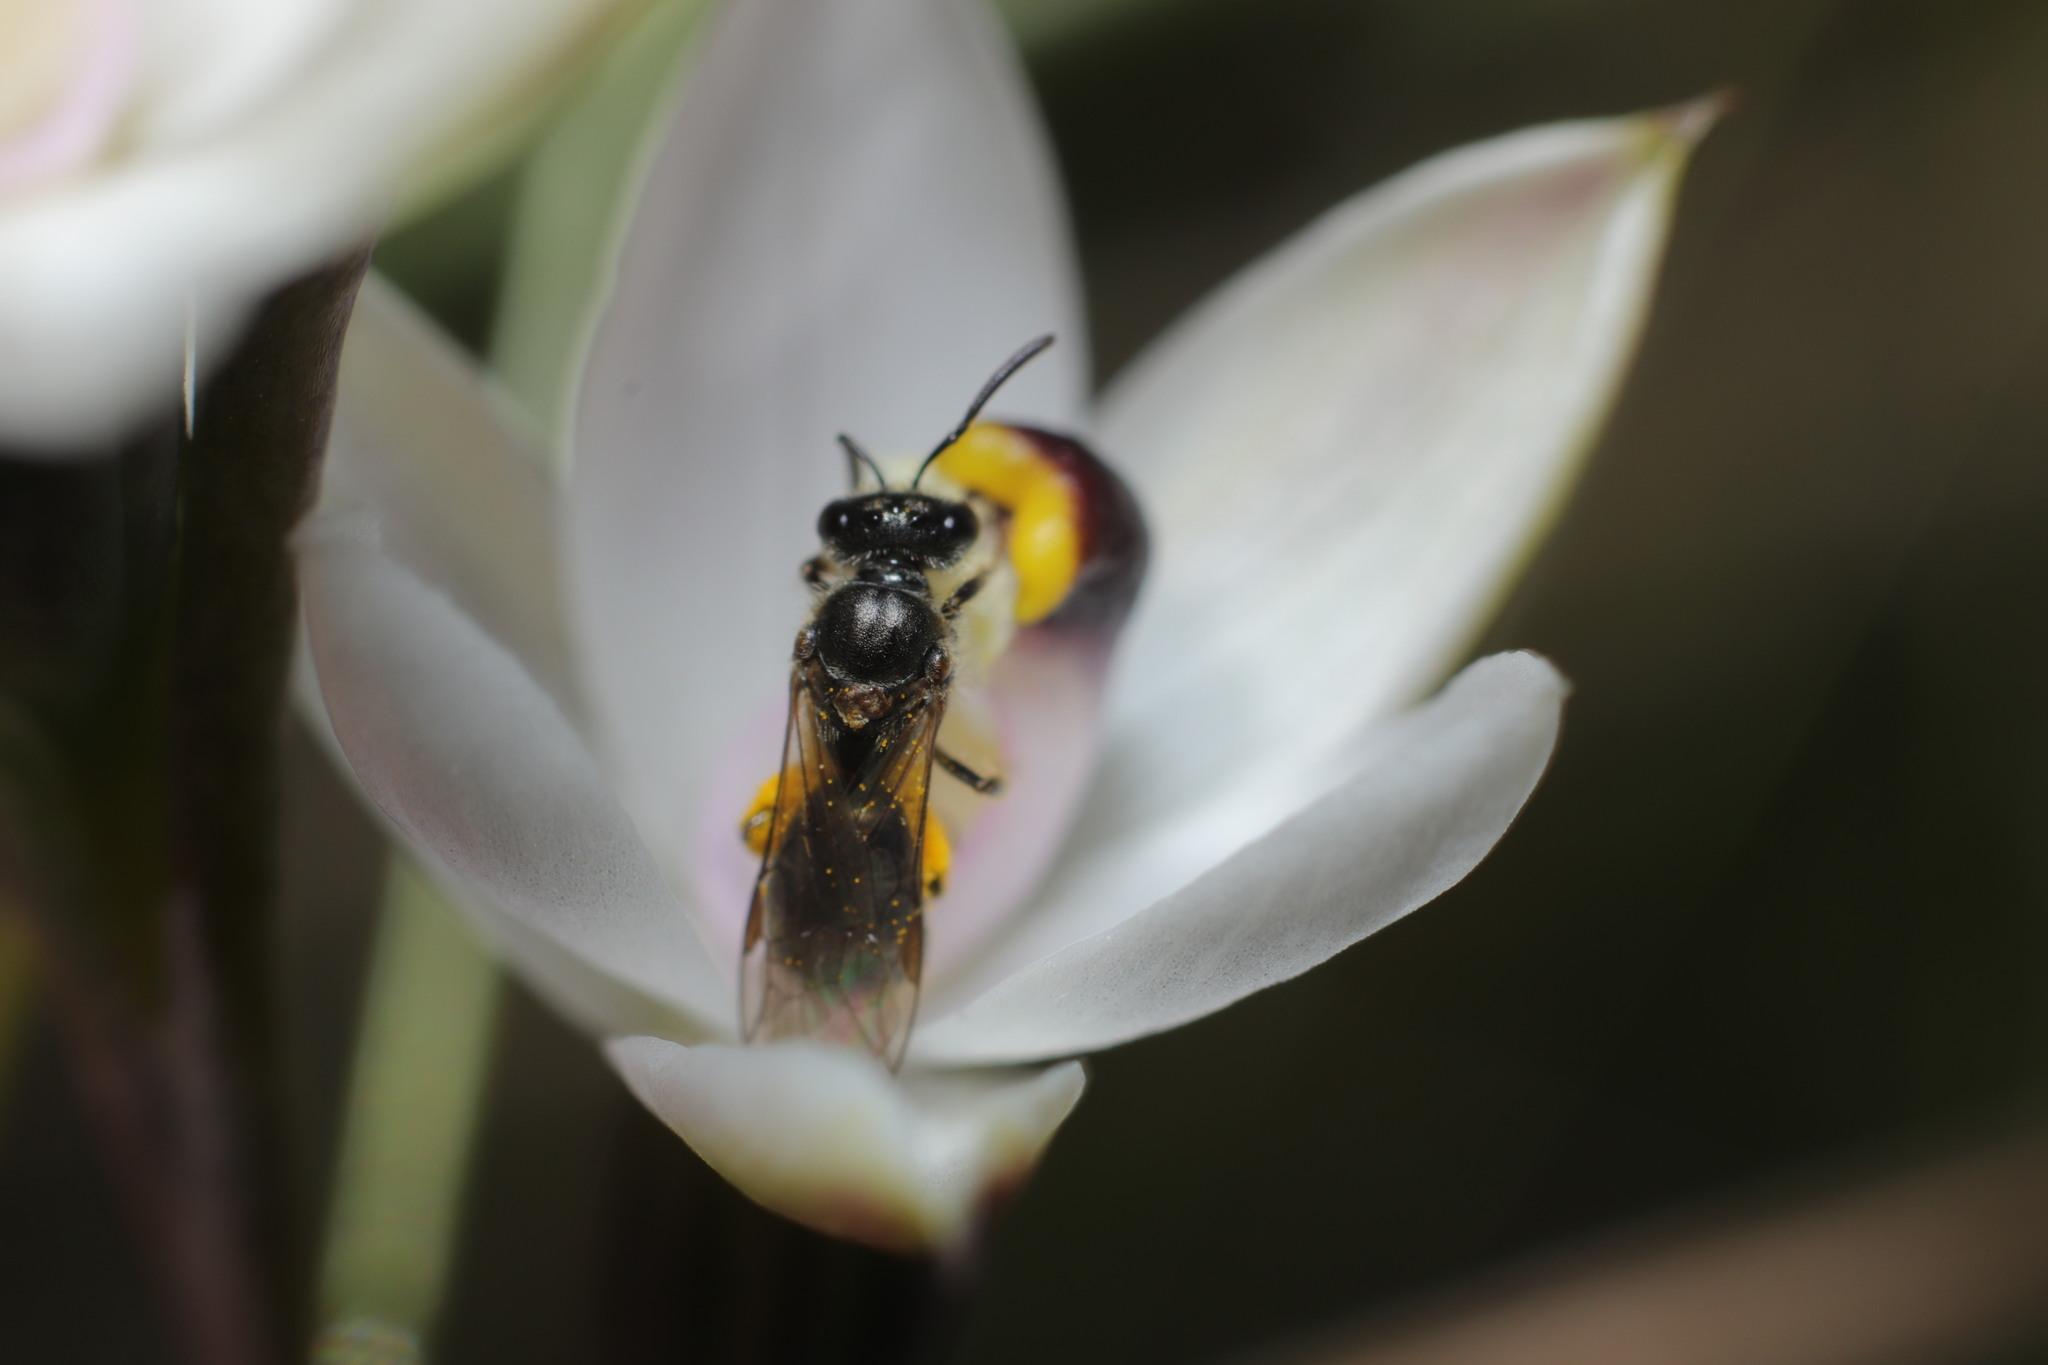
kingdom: Plantae
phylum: Tracheophyta
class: Liliopsida
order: Asparagales
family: Orchidaceae
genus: Thelymitra
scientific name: Thelymitra longifolia
